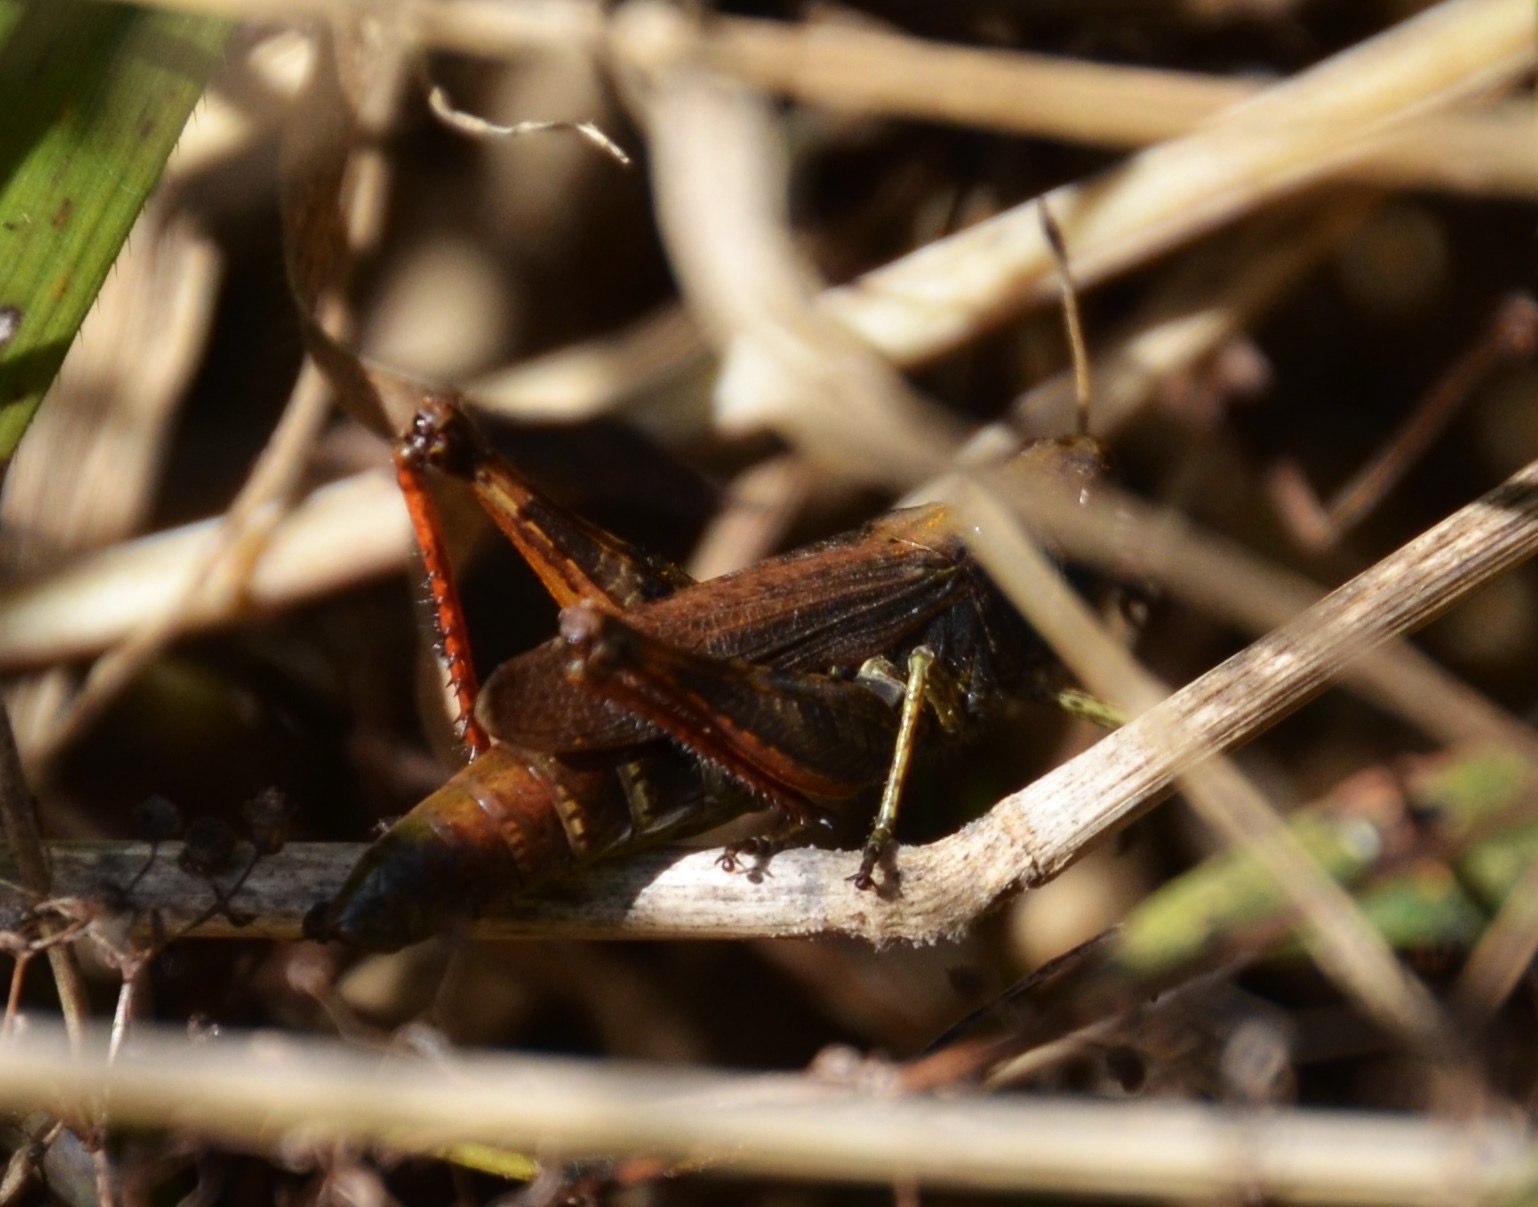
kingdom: Animalia
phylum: Arthropoda
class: Insecta
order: Orthoptera
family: Acrididae
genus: Gomphocerippus
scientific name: Gomphocerippus rufus
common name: Rufous grasshopper
